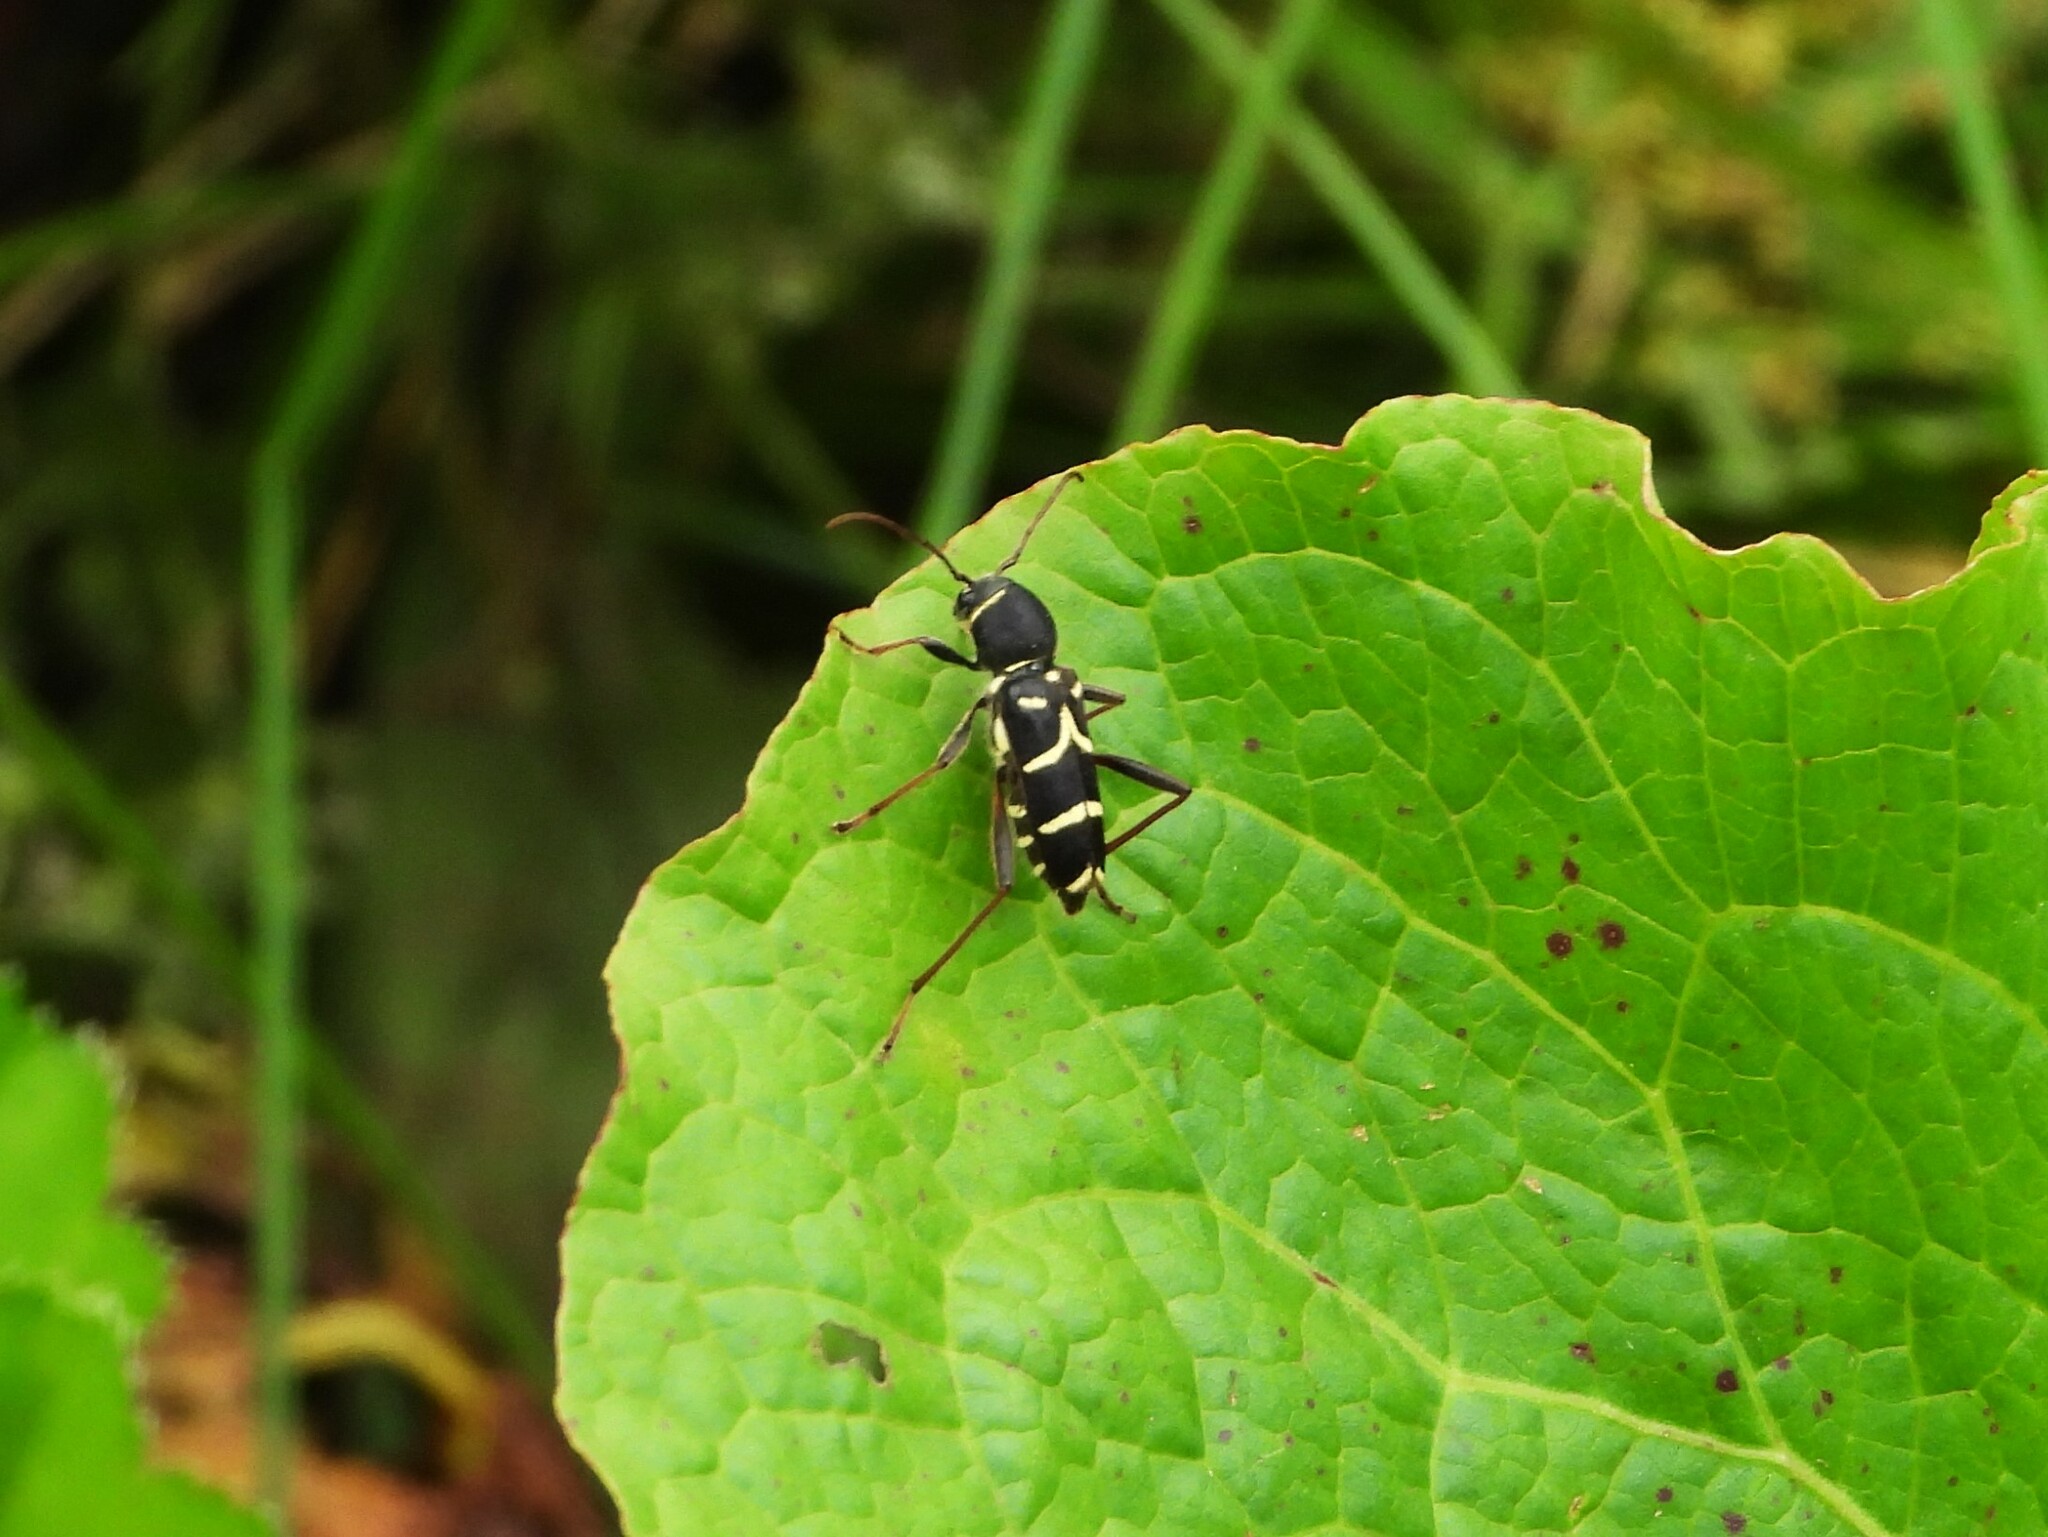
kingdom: Animalia
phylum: Arthropoda
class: Insecta
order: Coleoptera
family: Cerambycidae
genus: Clytus
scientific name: Clytus lama
